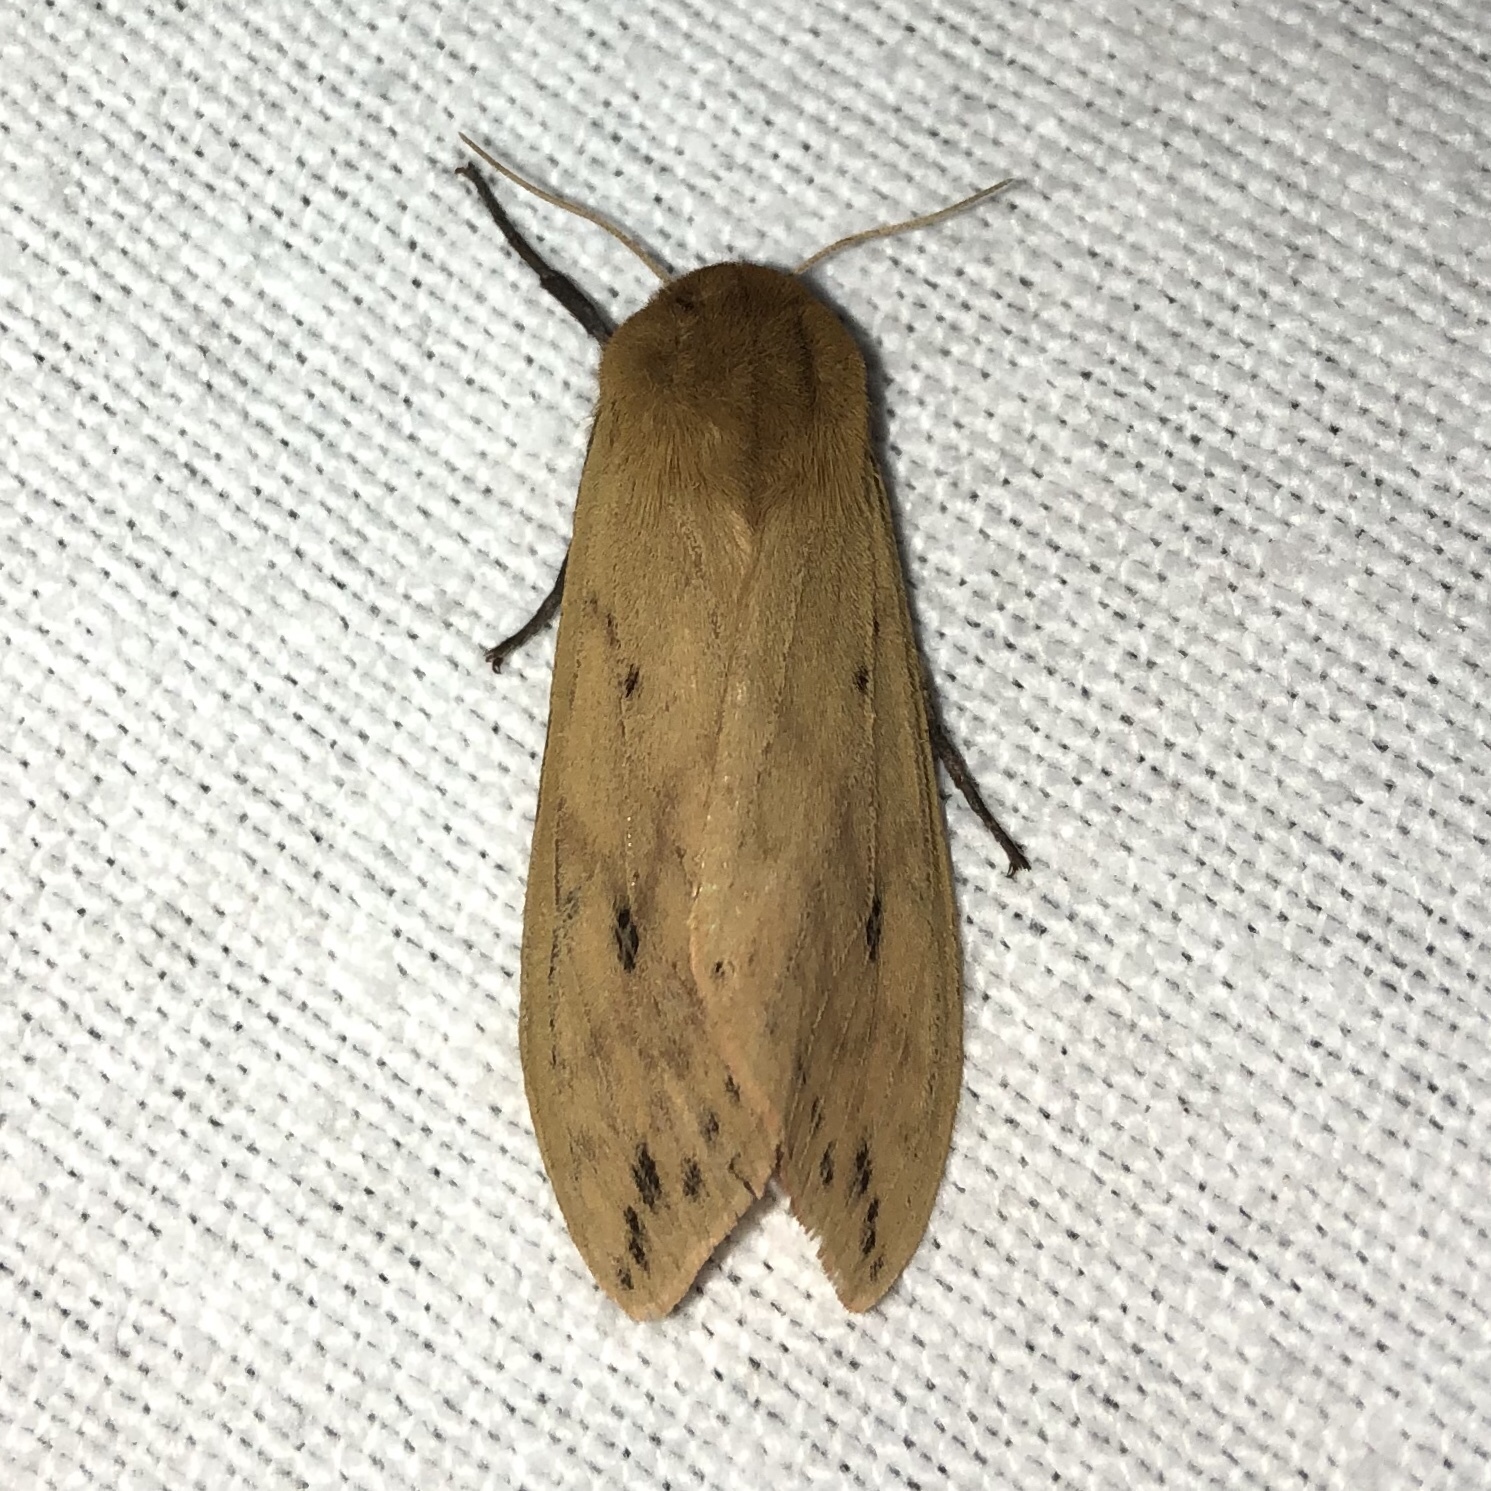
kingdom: Animalia
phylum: Arthropoda
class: Insecta
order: Lepidoptera
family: Erebidae
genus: Pyrrharctia
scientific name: Pyrrharctia isabella
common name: Isabella tiger moth
